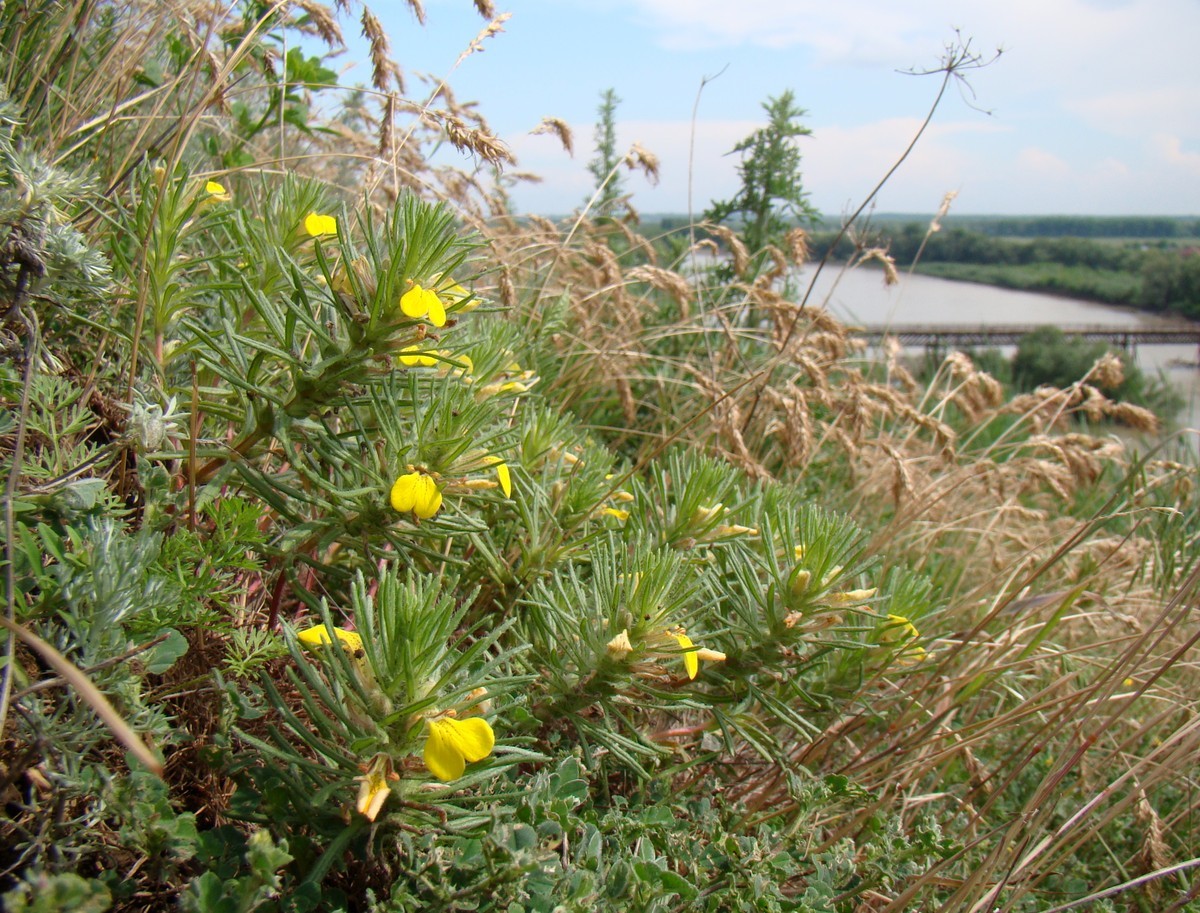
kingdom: Plantae
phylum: Tracheophyta
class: Magnoliopsida
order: Lamiales
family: Lamiaceae
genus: Ajuga
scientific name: Ajuga chamaepitys
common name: Ground-pine
